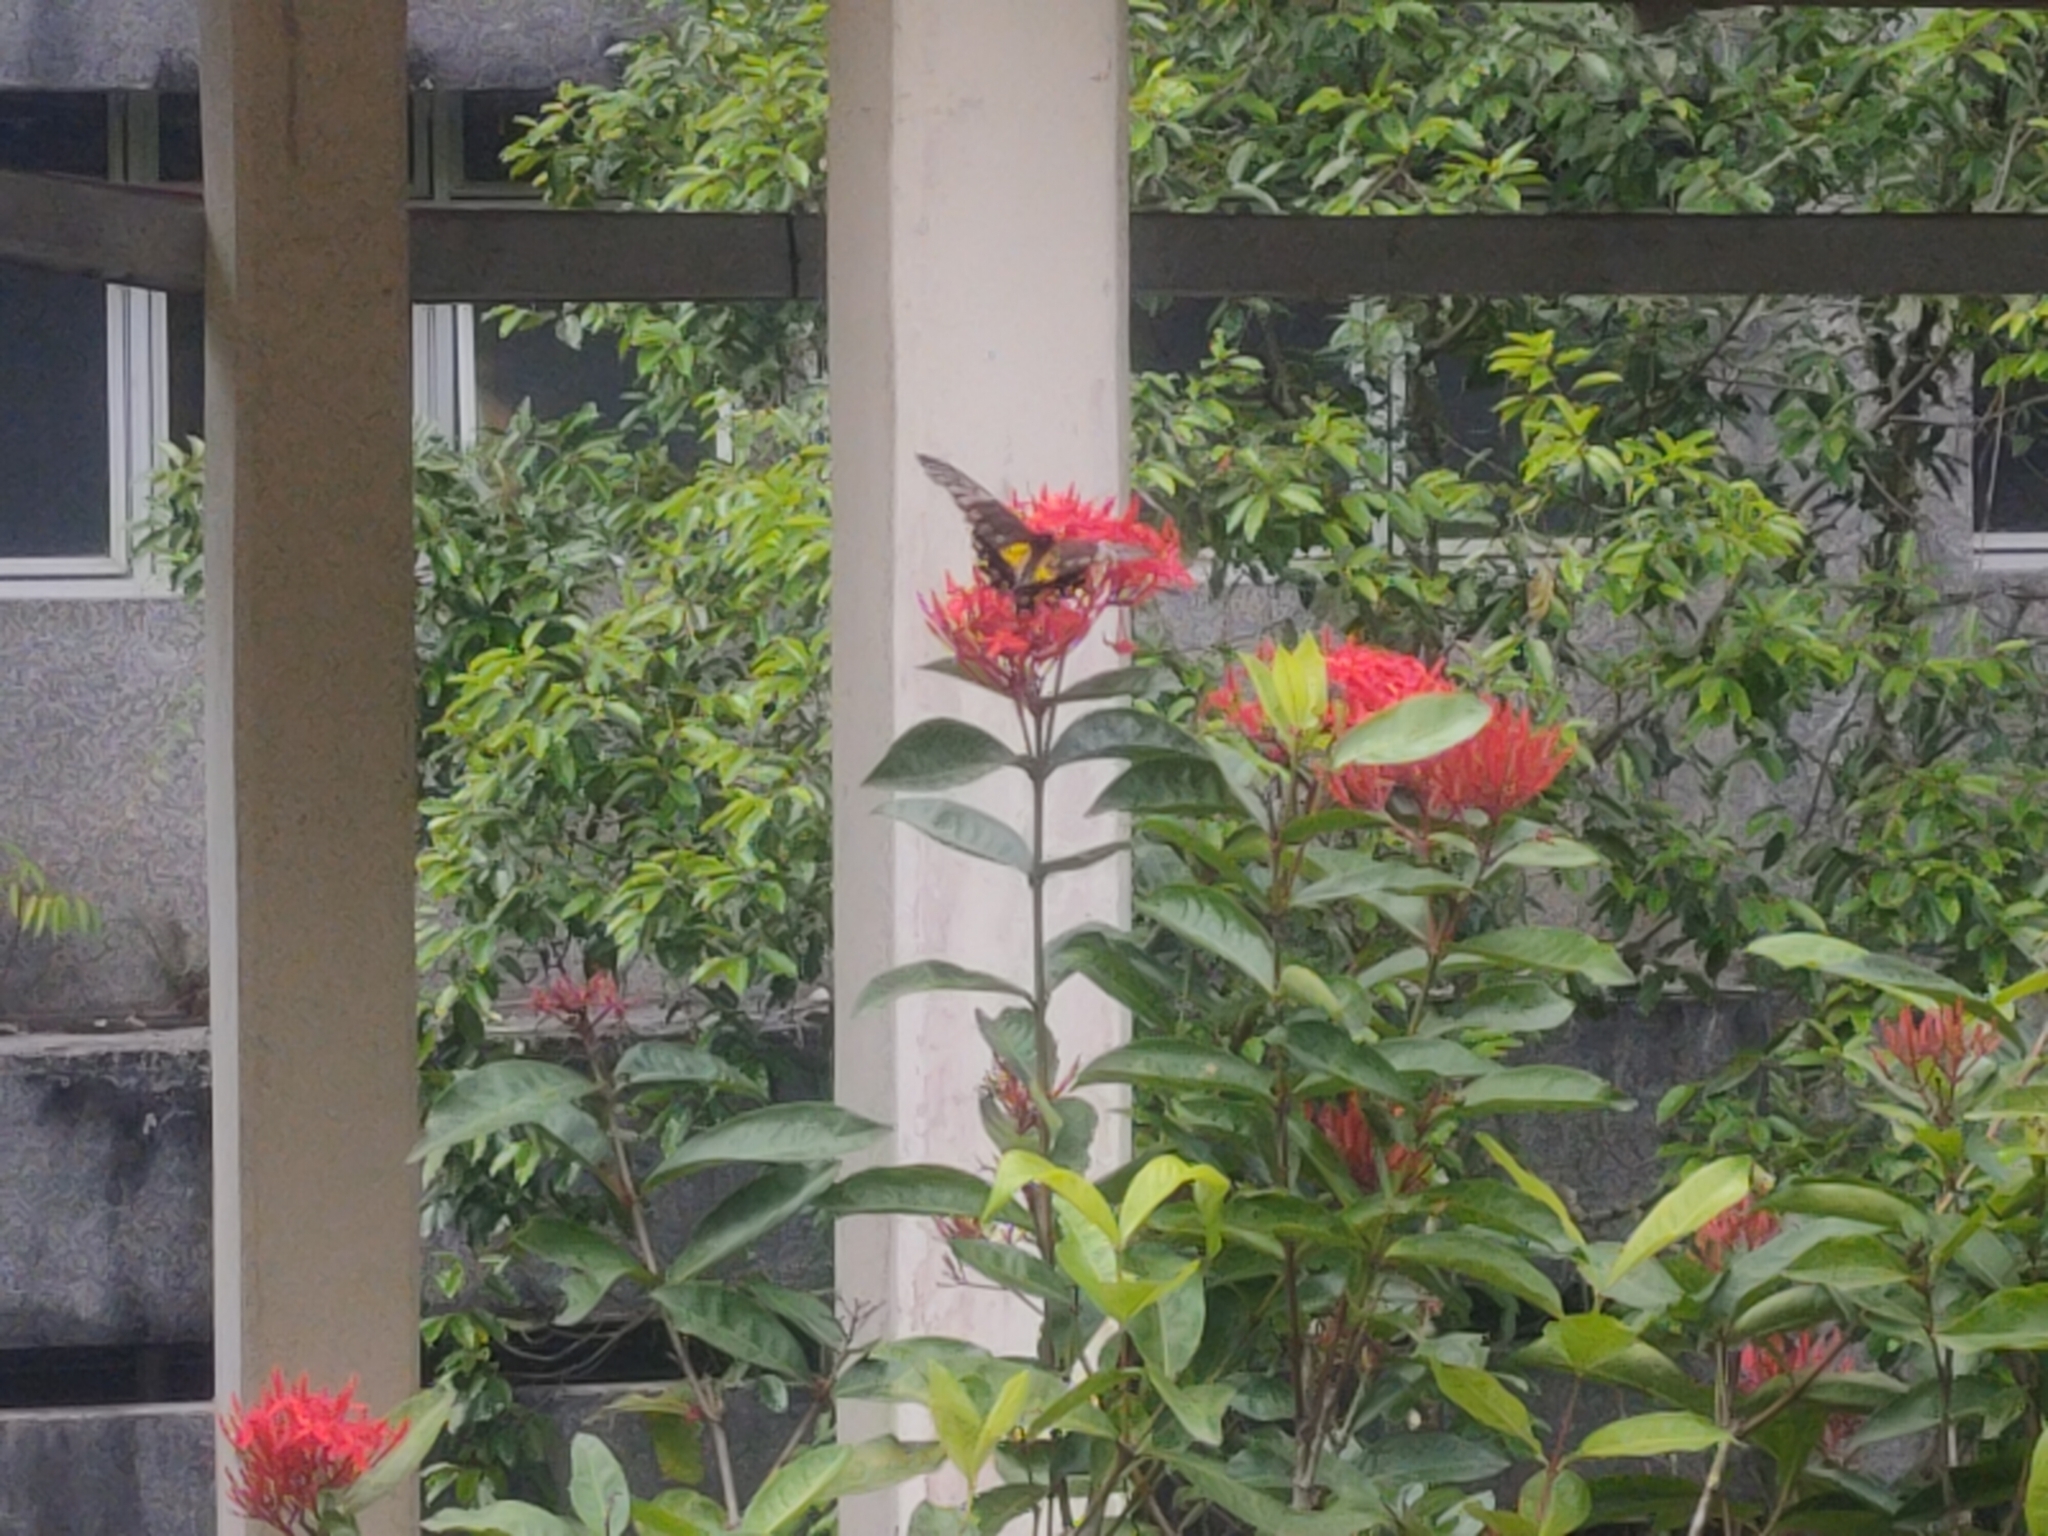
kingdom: Animalia
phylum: Arthropoda
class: Insecta
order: Lepidoptera
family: Papilionidae
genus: Troides
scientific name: Troides amphrysus
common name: Malay birdwing
